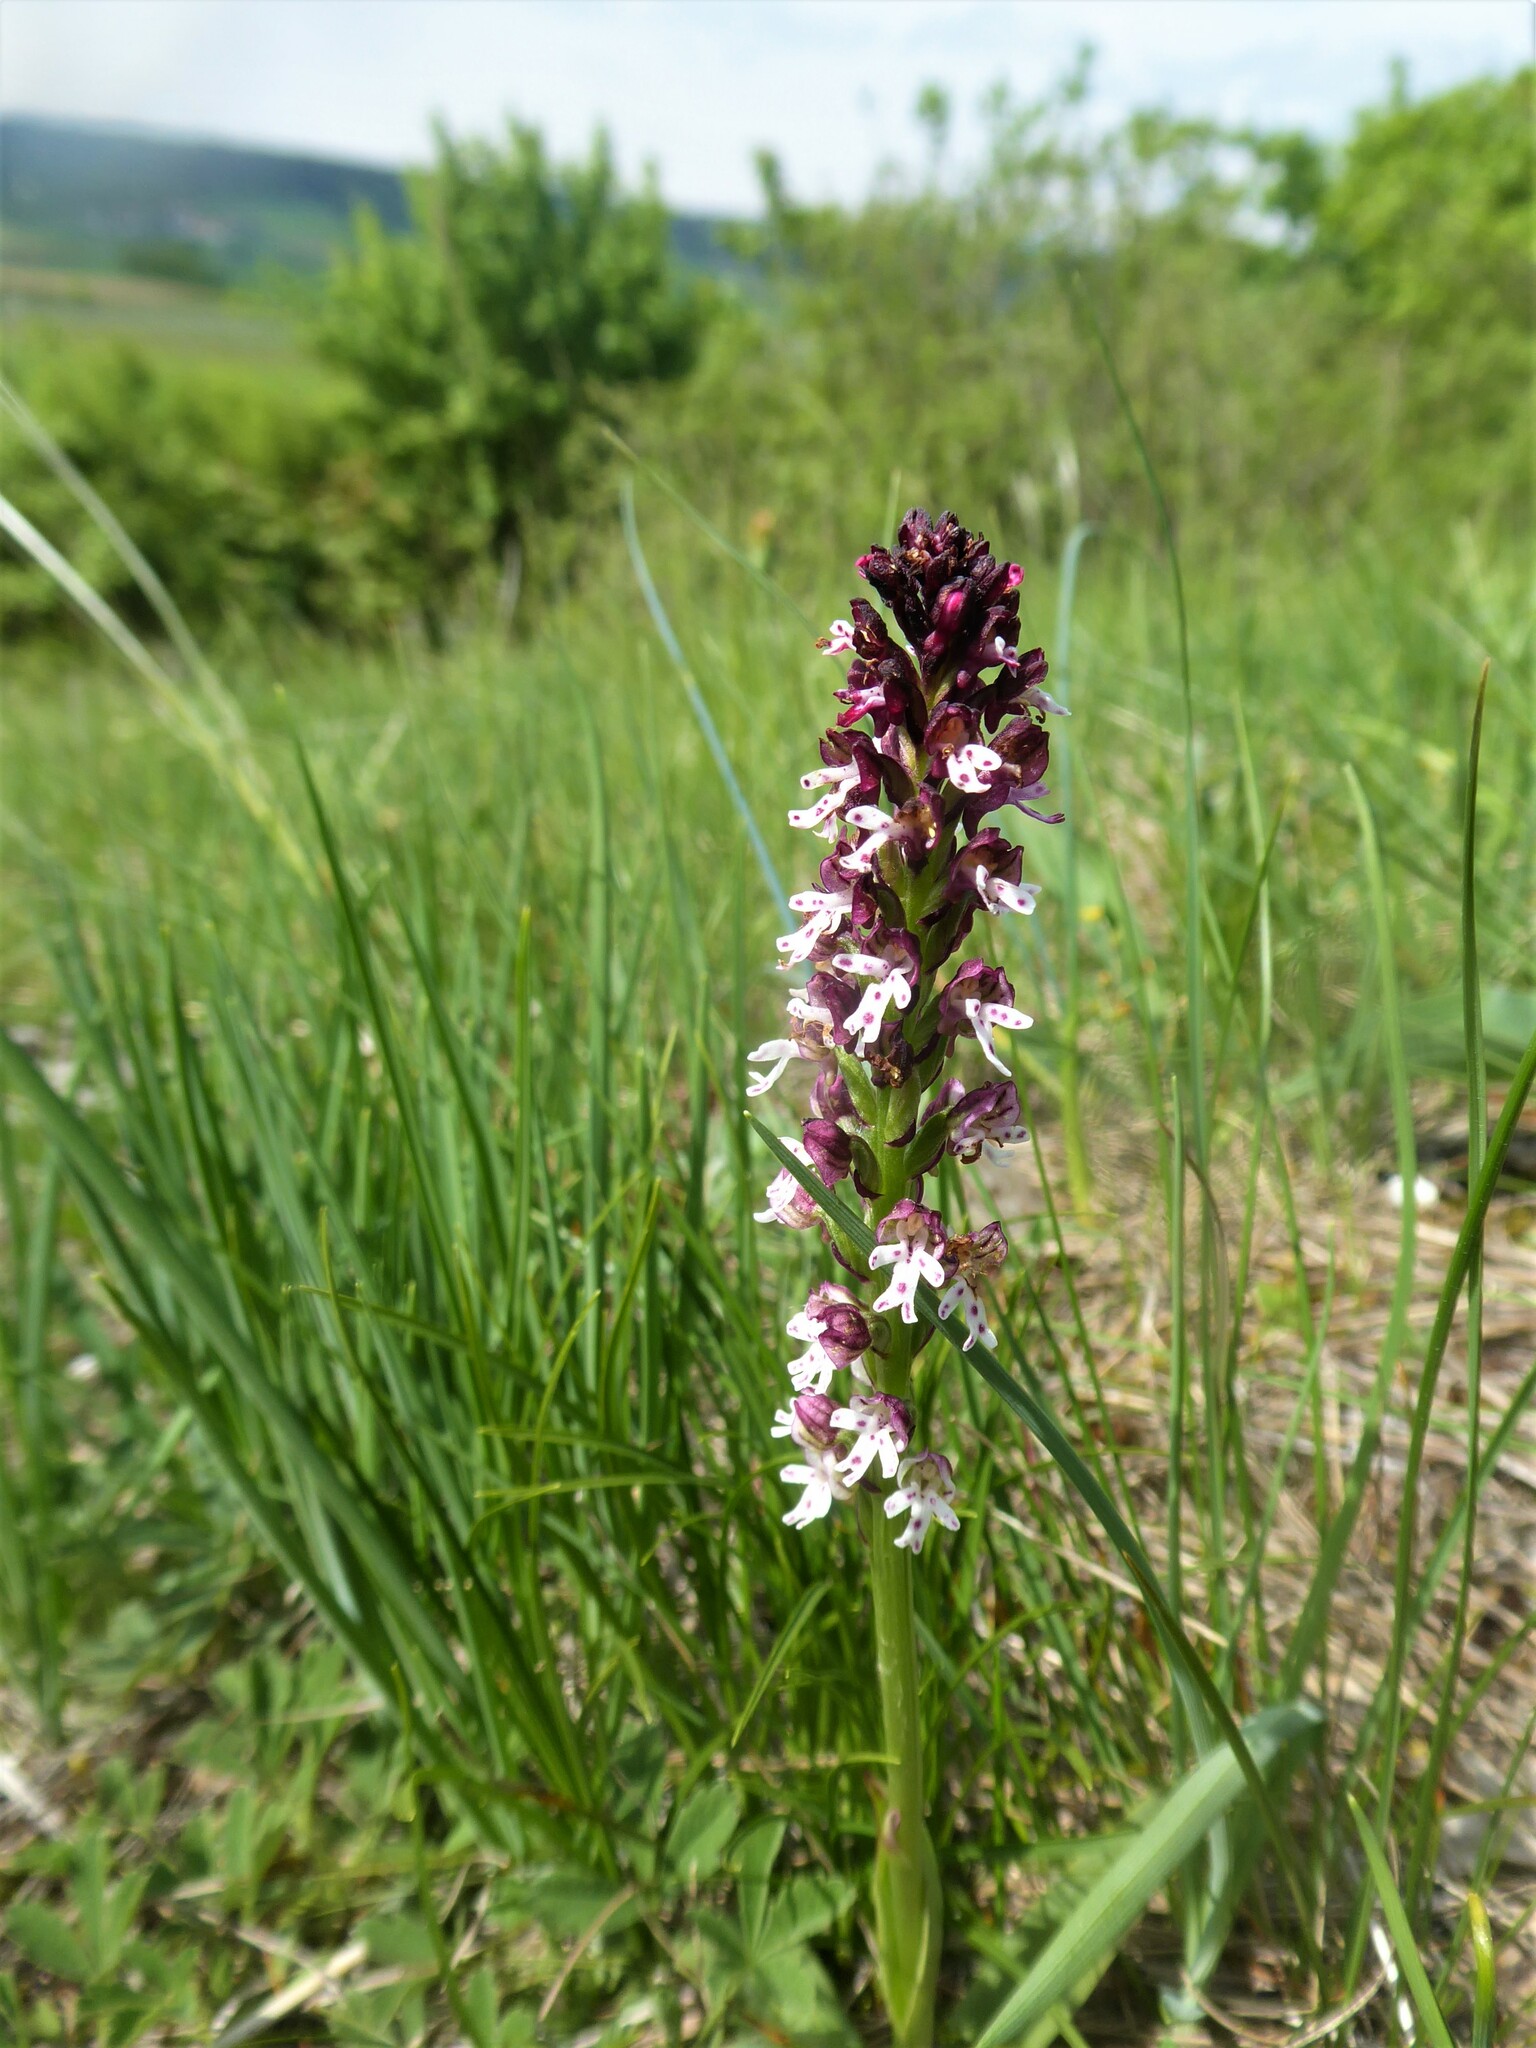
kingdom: Plantae
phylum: Tracheophyta
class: Liliopsida
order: Asparagales
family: Orchidaceae
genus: Neotinea
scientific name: Neotinea ustulata
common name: Burnt orchid
